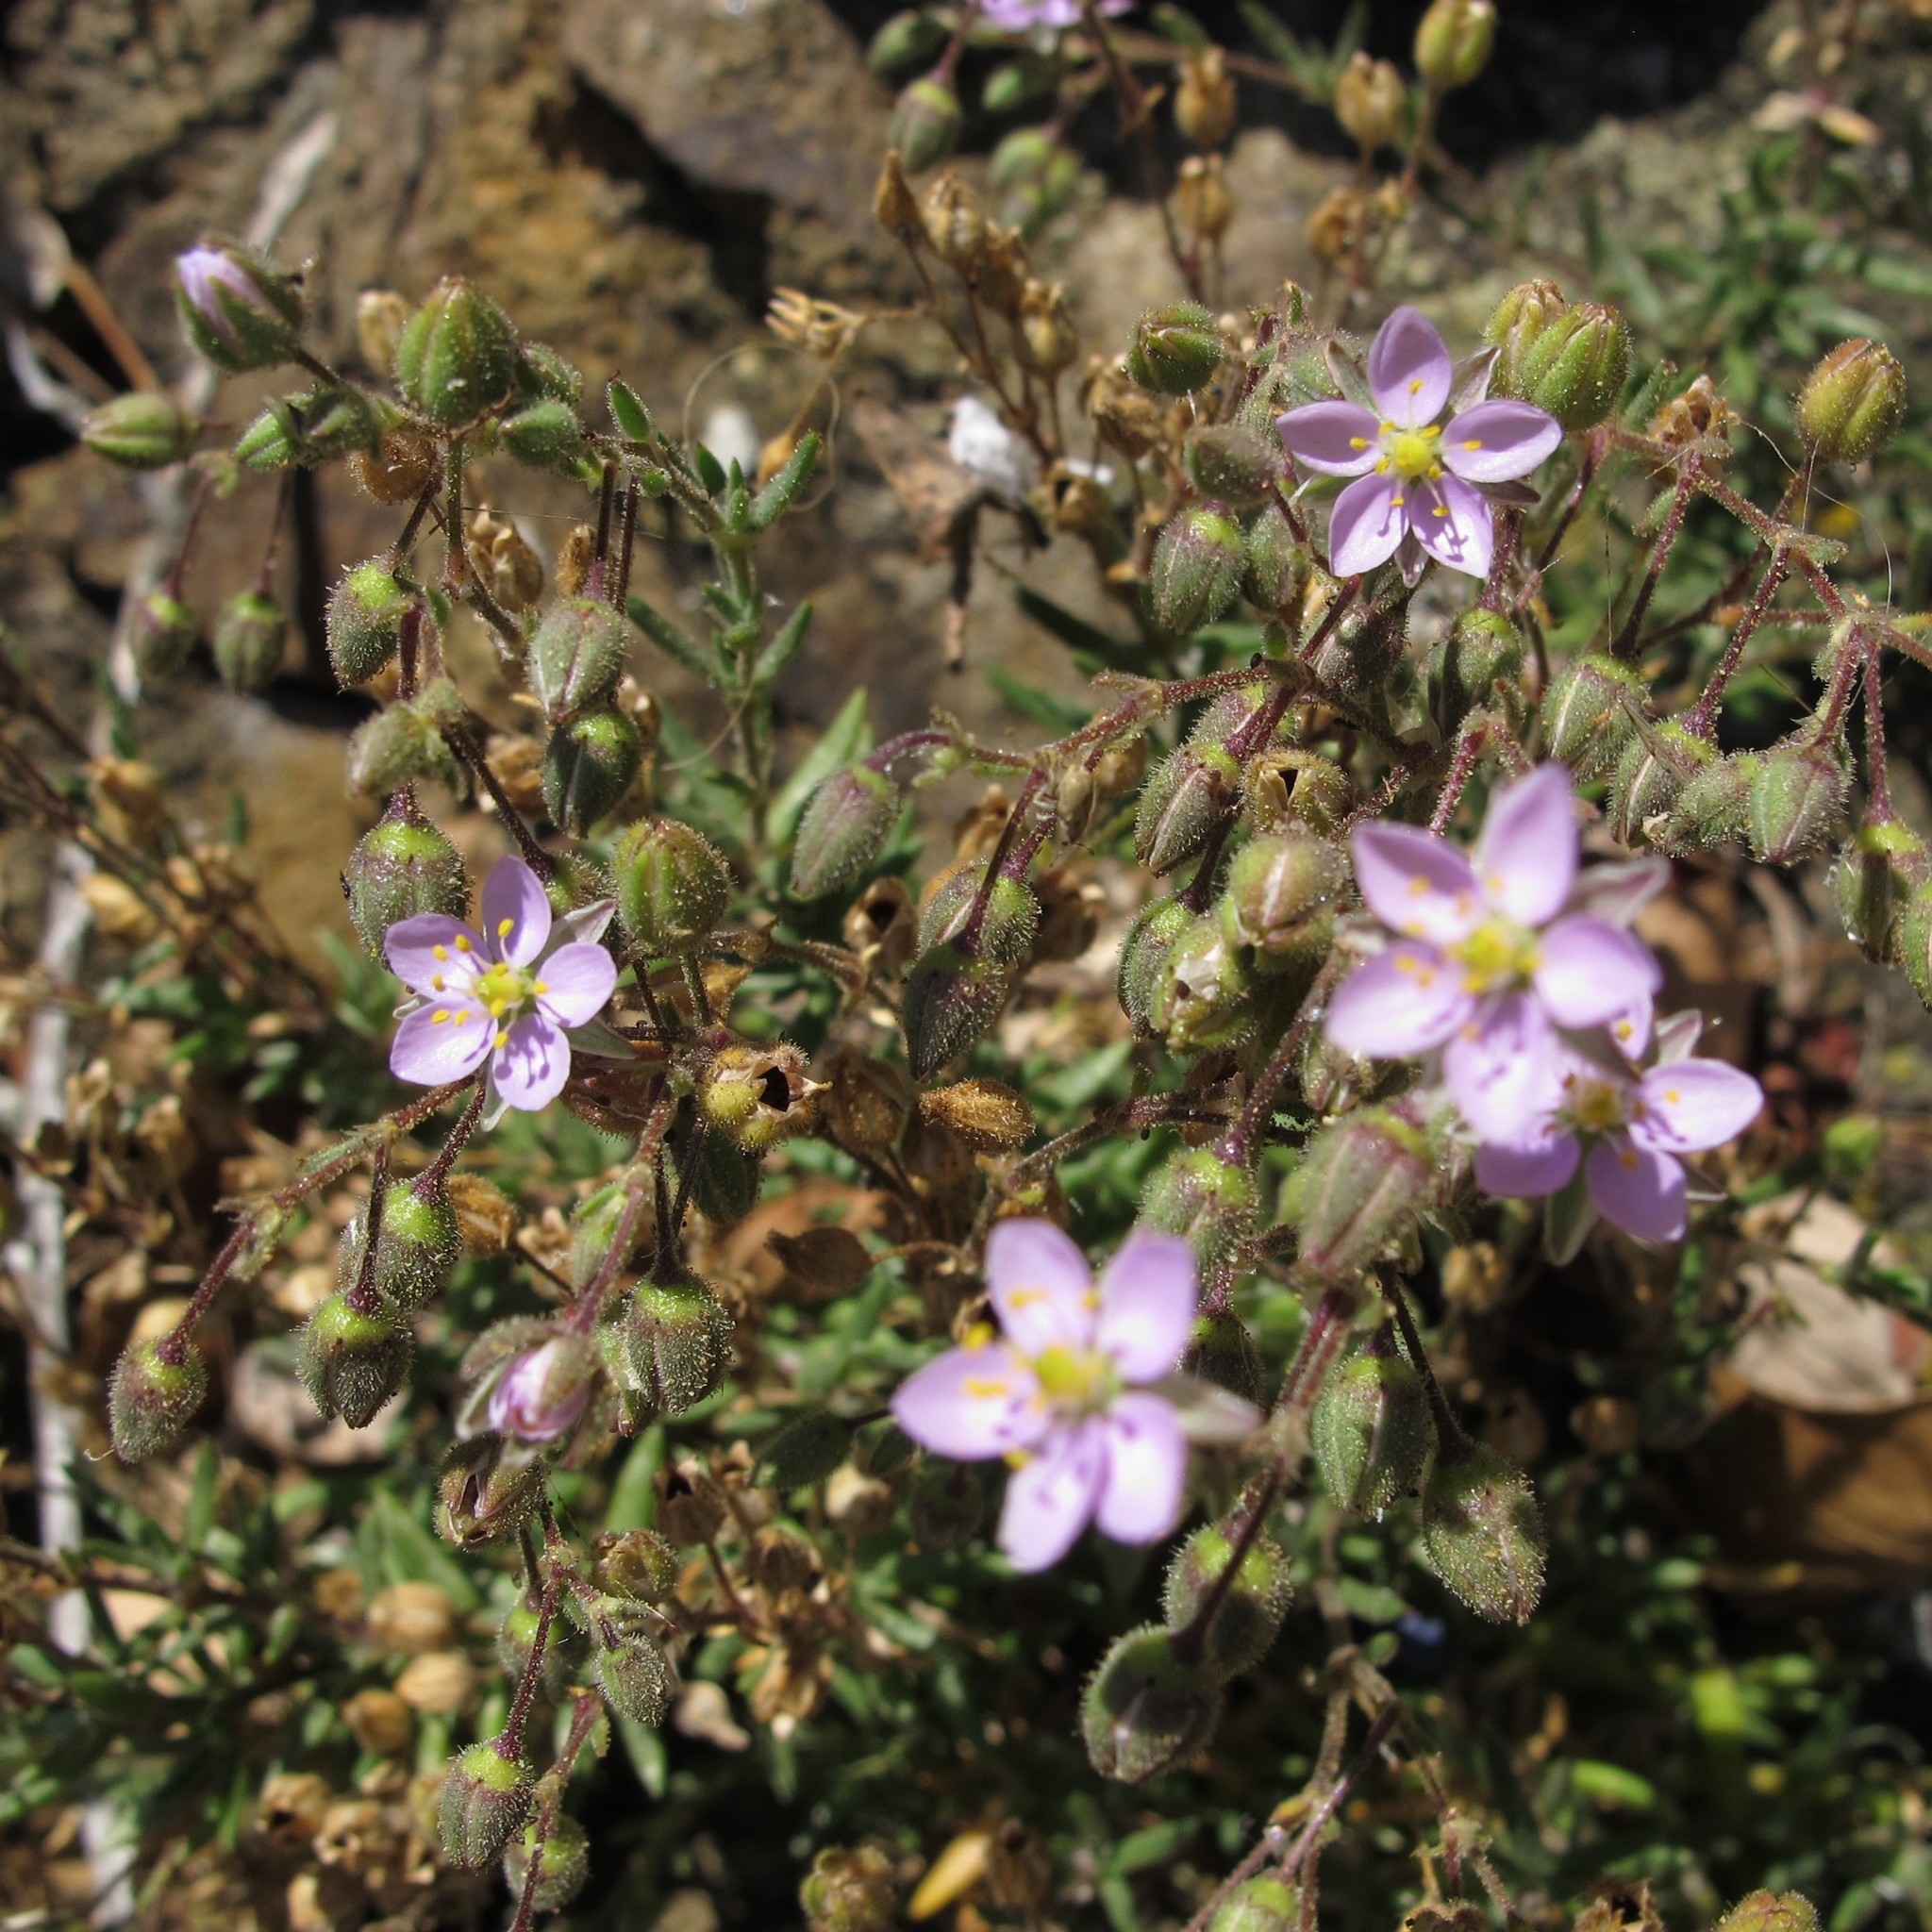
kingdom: Plantae
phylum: Tracheophyta
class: Magnoliopsida
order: Caryophyllales
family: Caryophyllaceae
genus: Spergularia
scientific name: Spergularia rubra
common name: Red sand-spurrey
